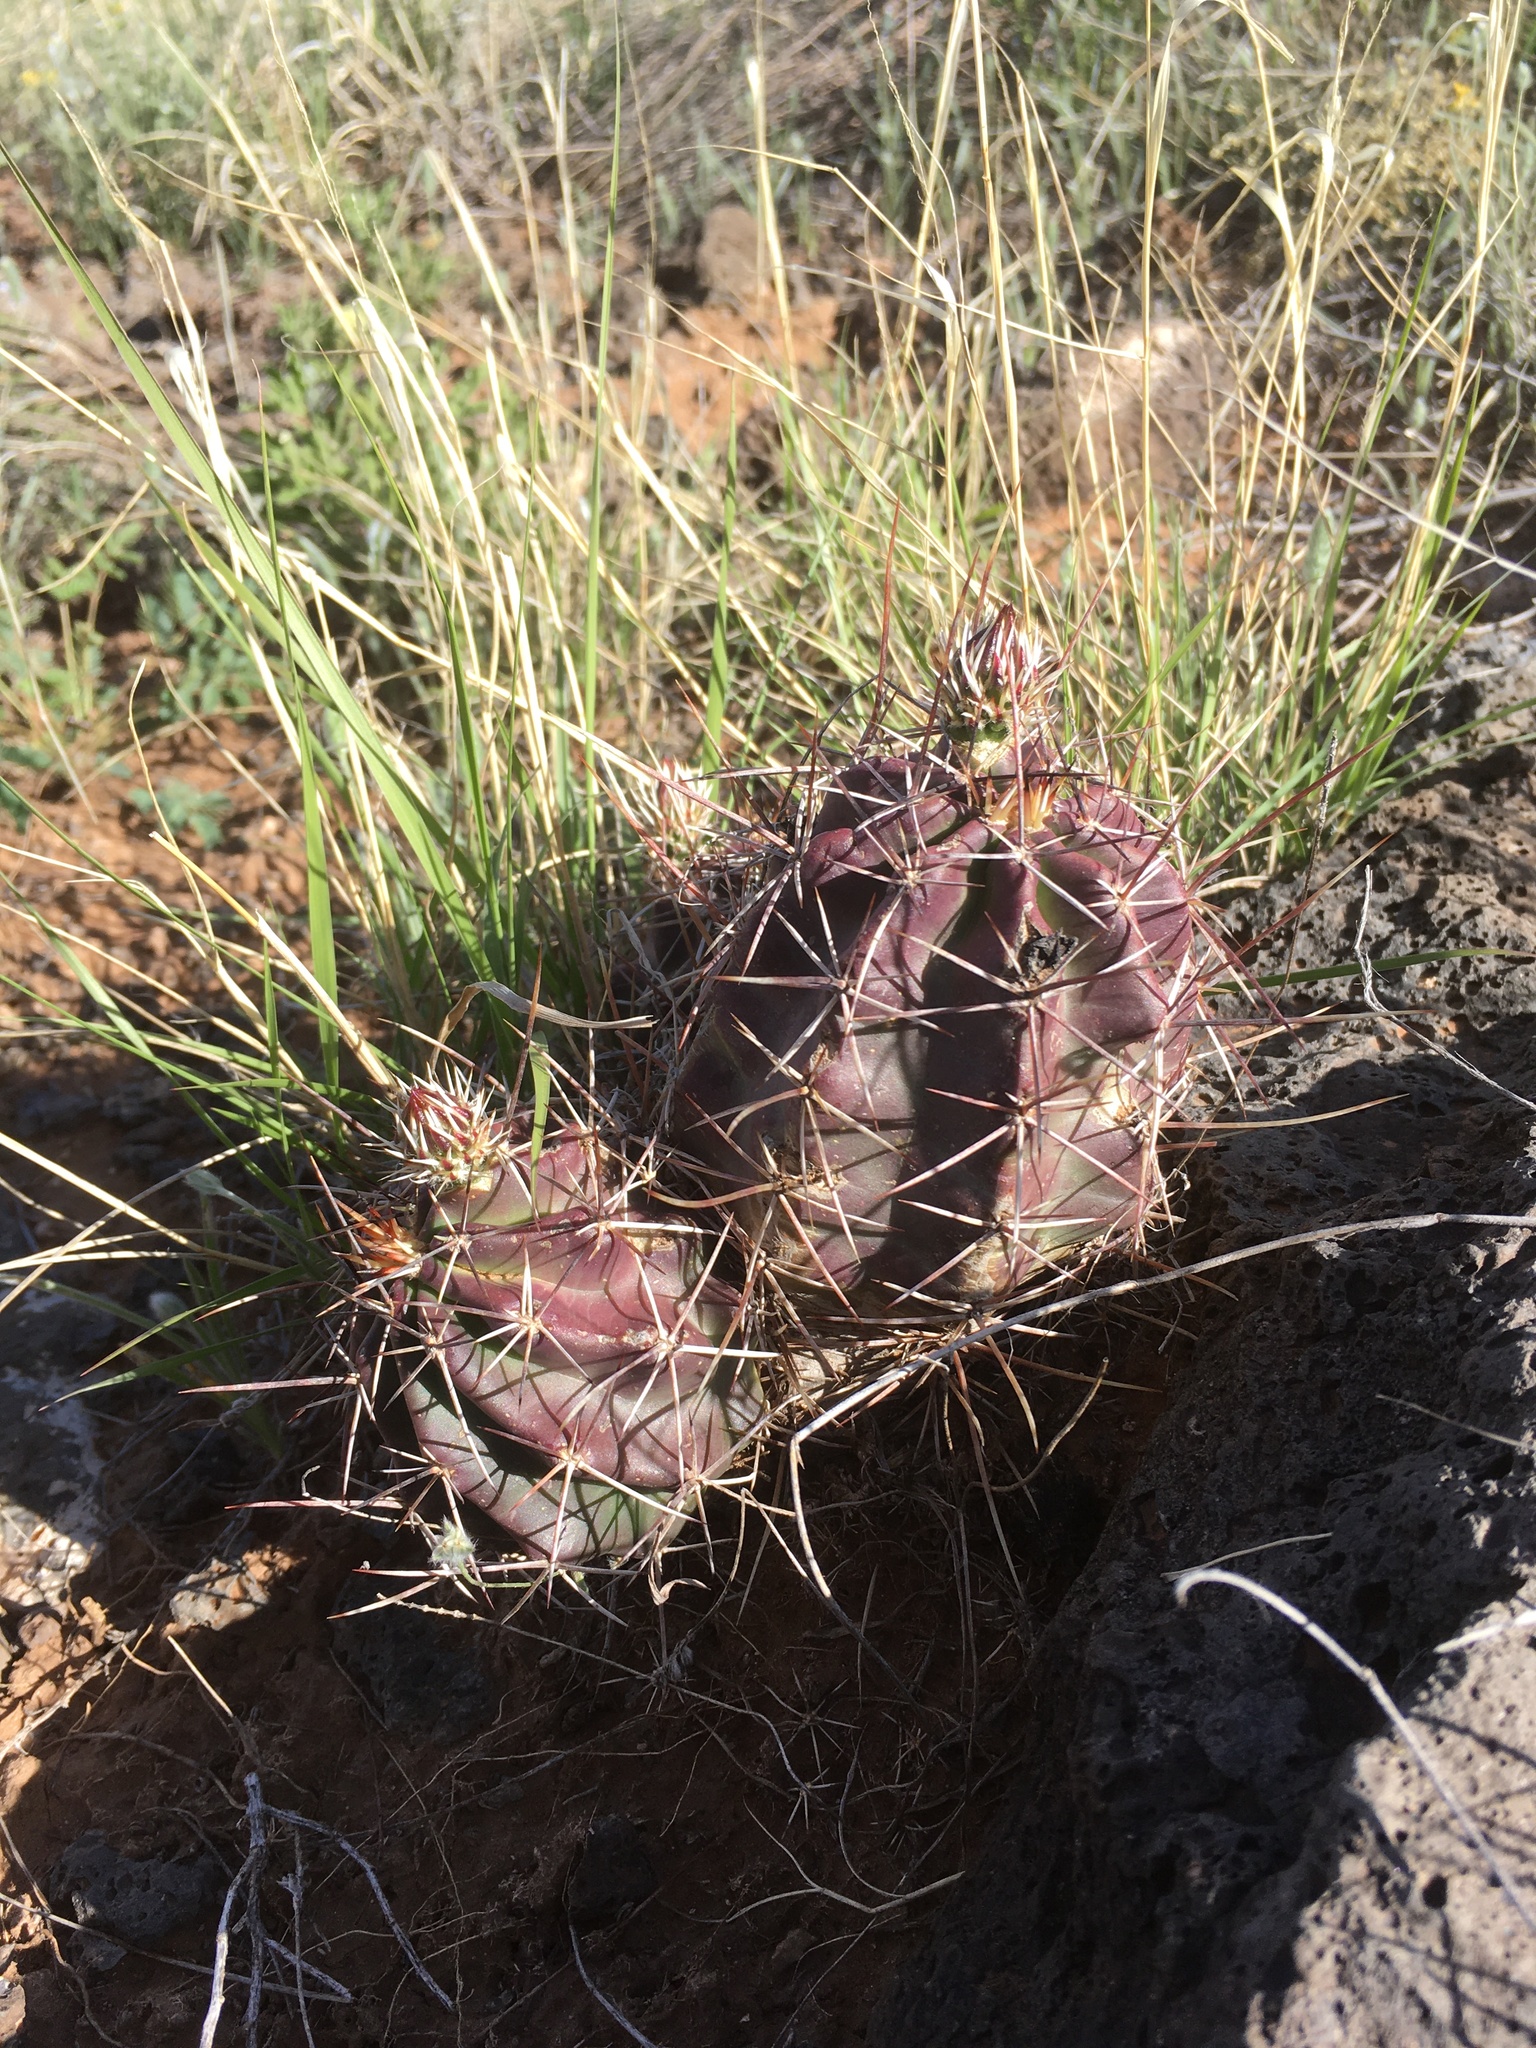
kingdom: Plantae
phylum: Tracheophyta
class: Magnoliopsida
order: Caryophyllales
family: Cactaceae
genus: Echinocereus
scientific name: Echinocereus fendleri
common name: Fendler's hedgehog cactus
